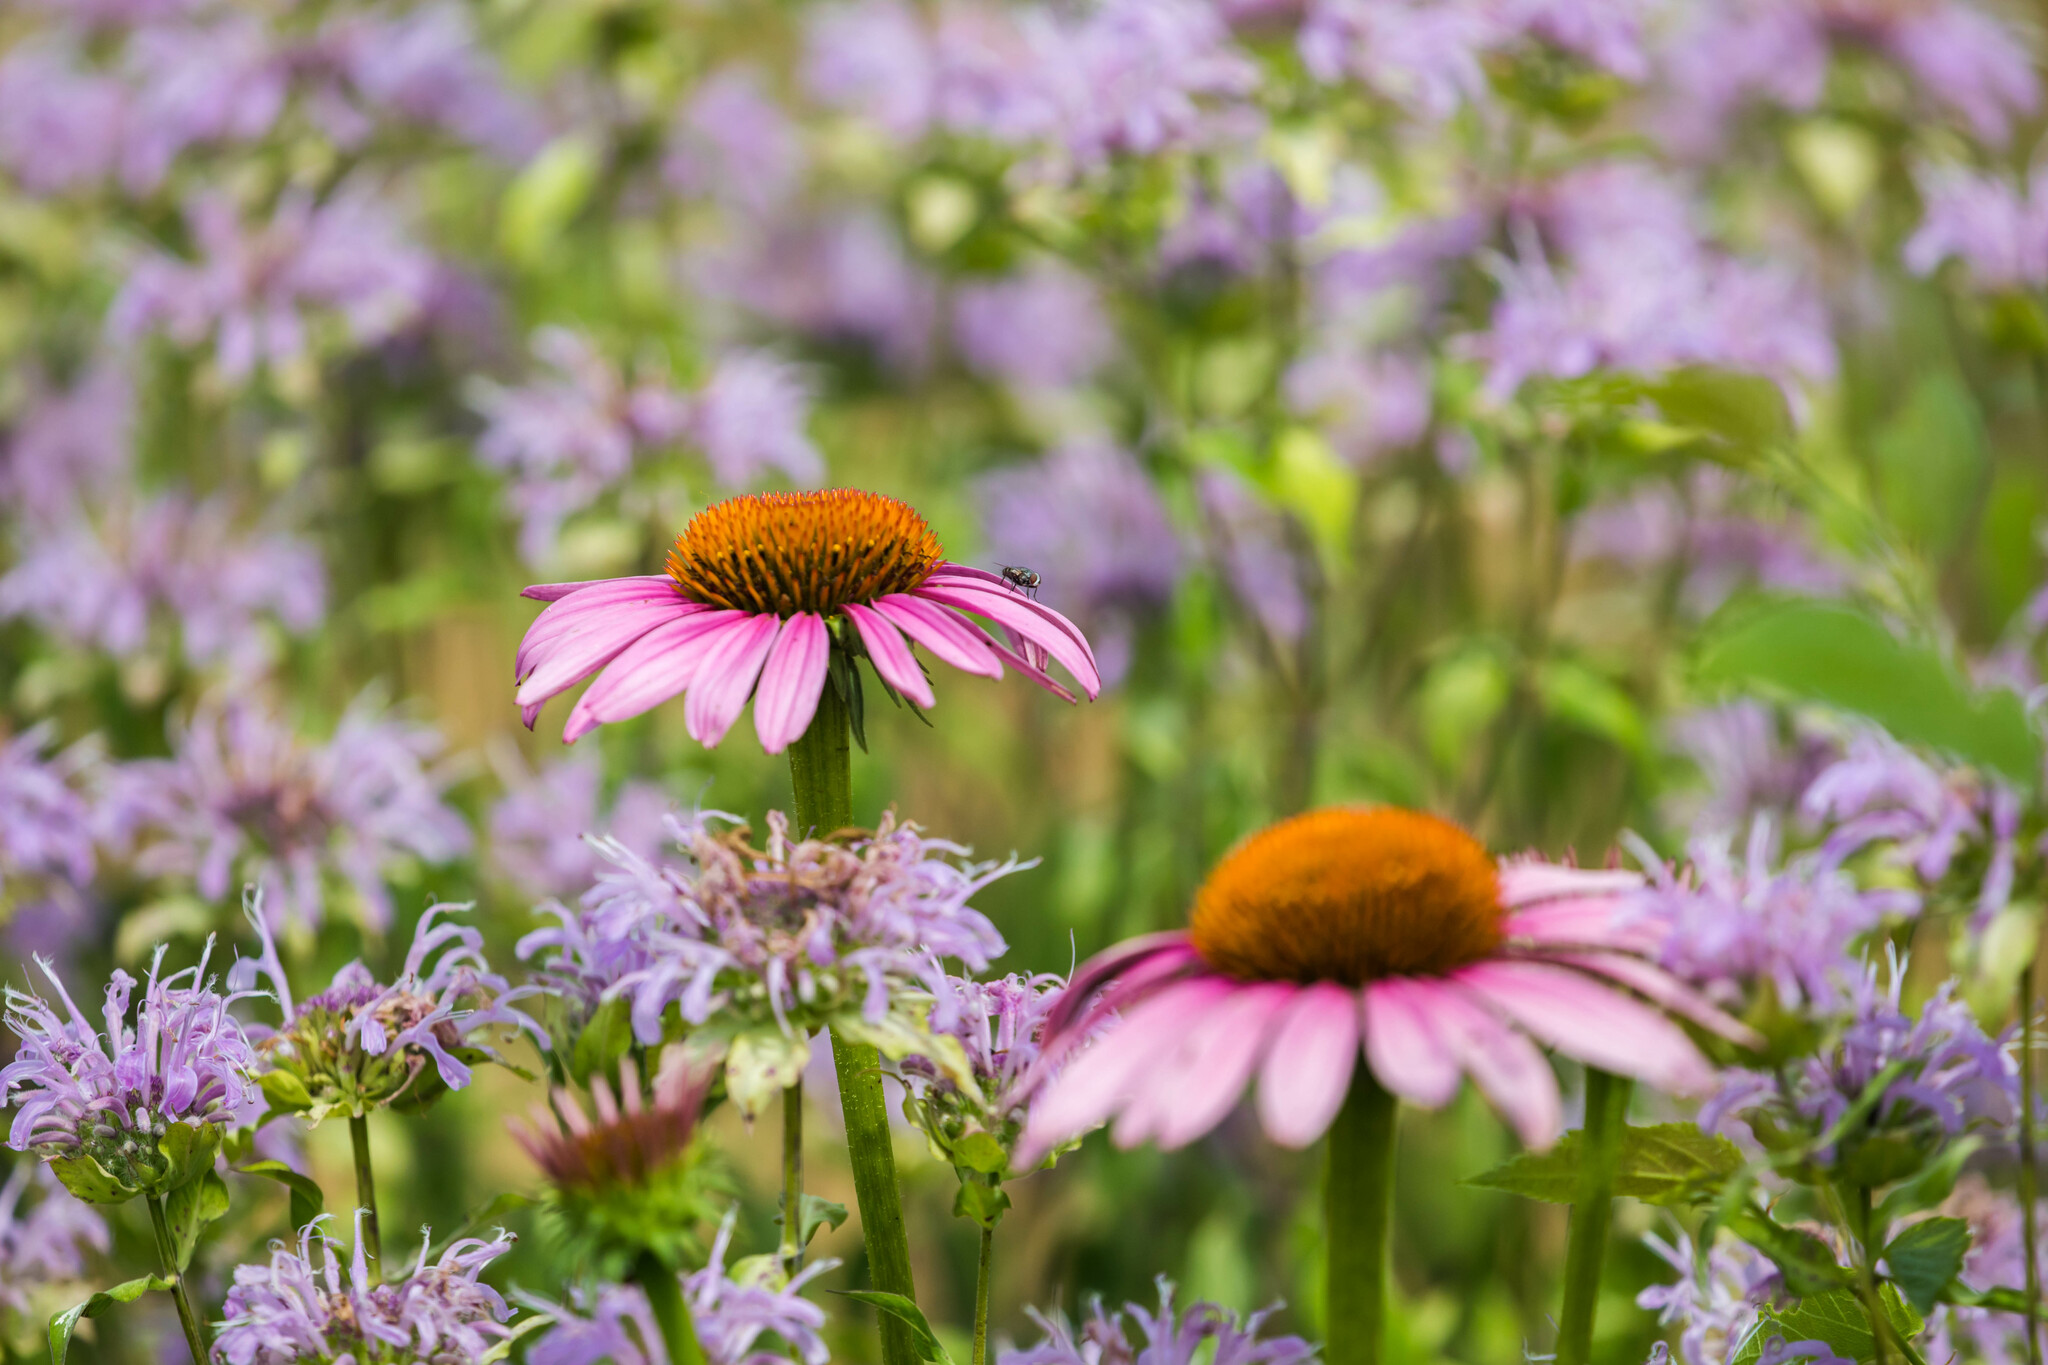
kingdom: Plantae
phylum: Tracheophyta
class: Magnoliopsida
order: Asterales
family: Asteraceae
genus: Echinacea
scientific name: Echinacea purpurea
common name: Broad-leaved purple coneflower
